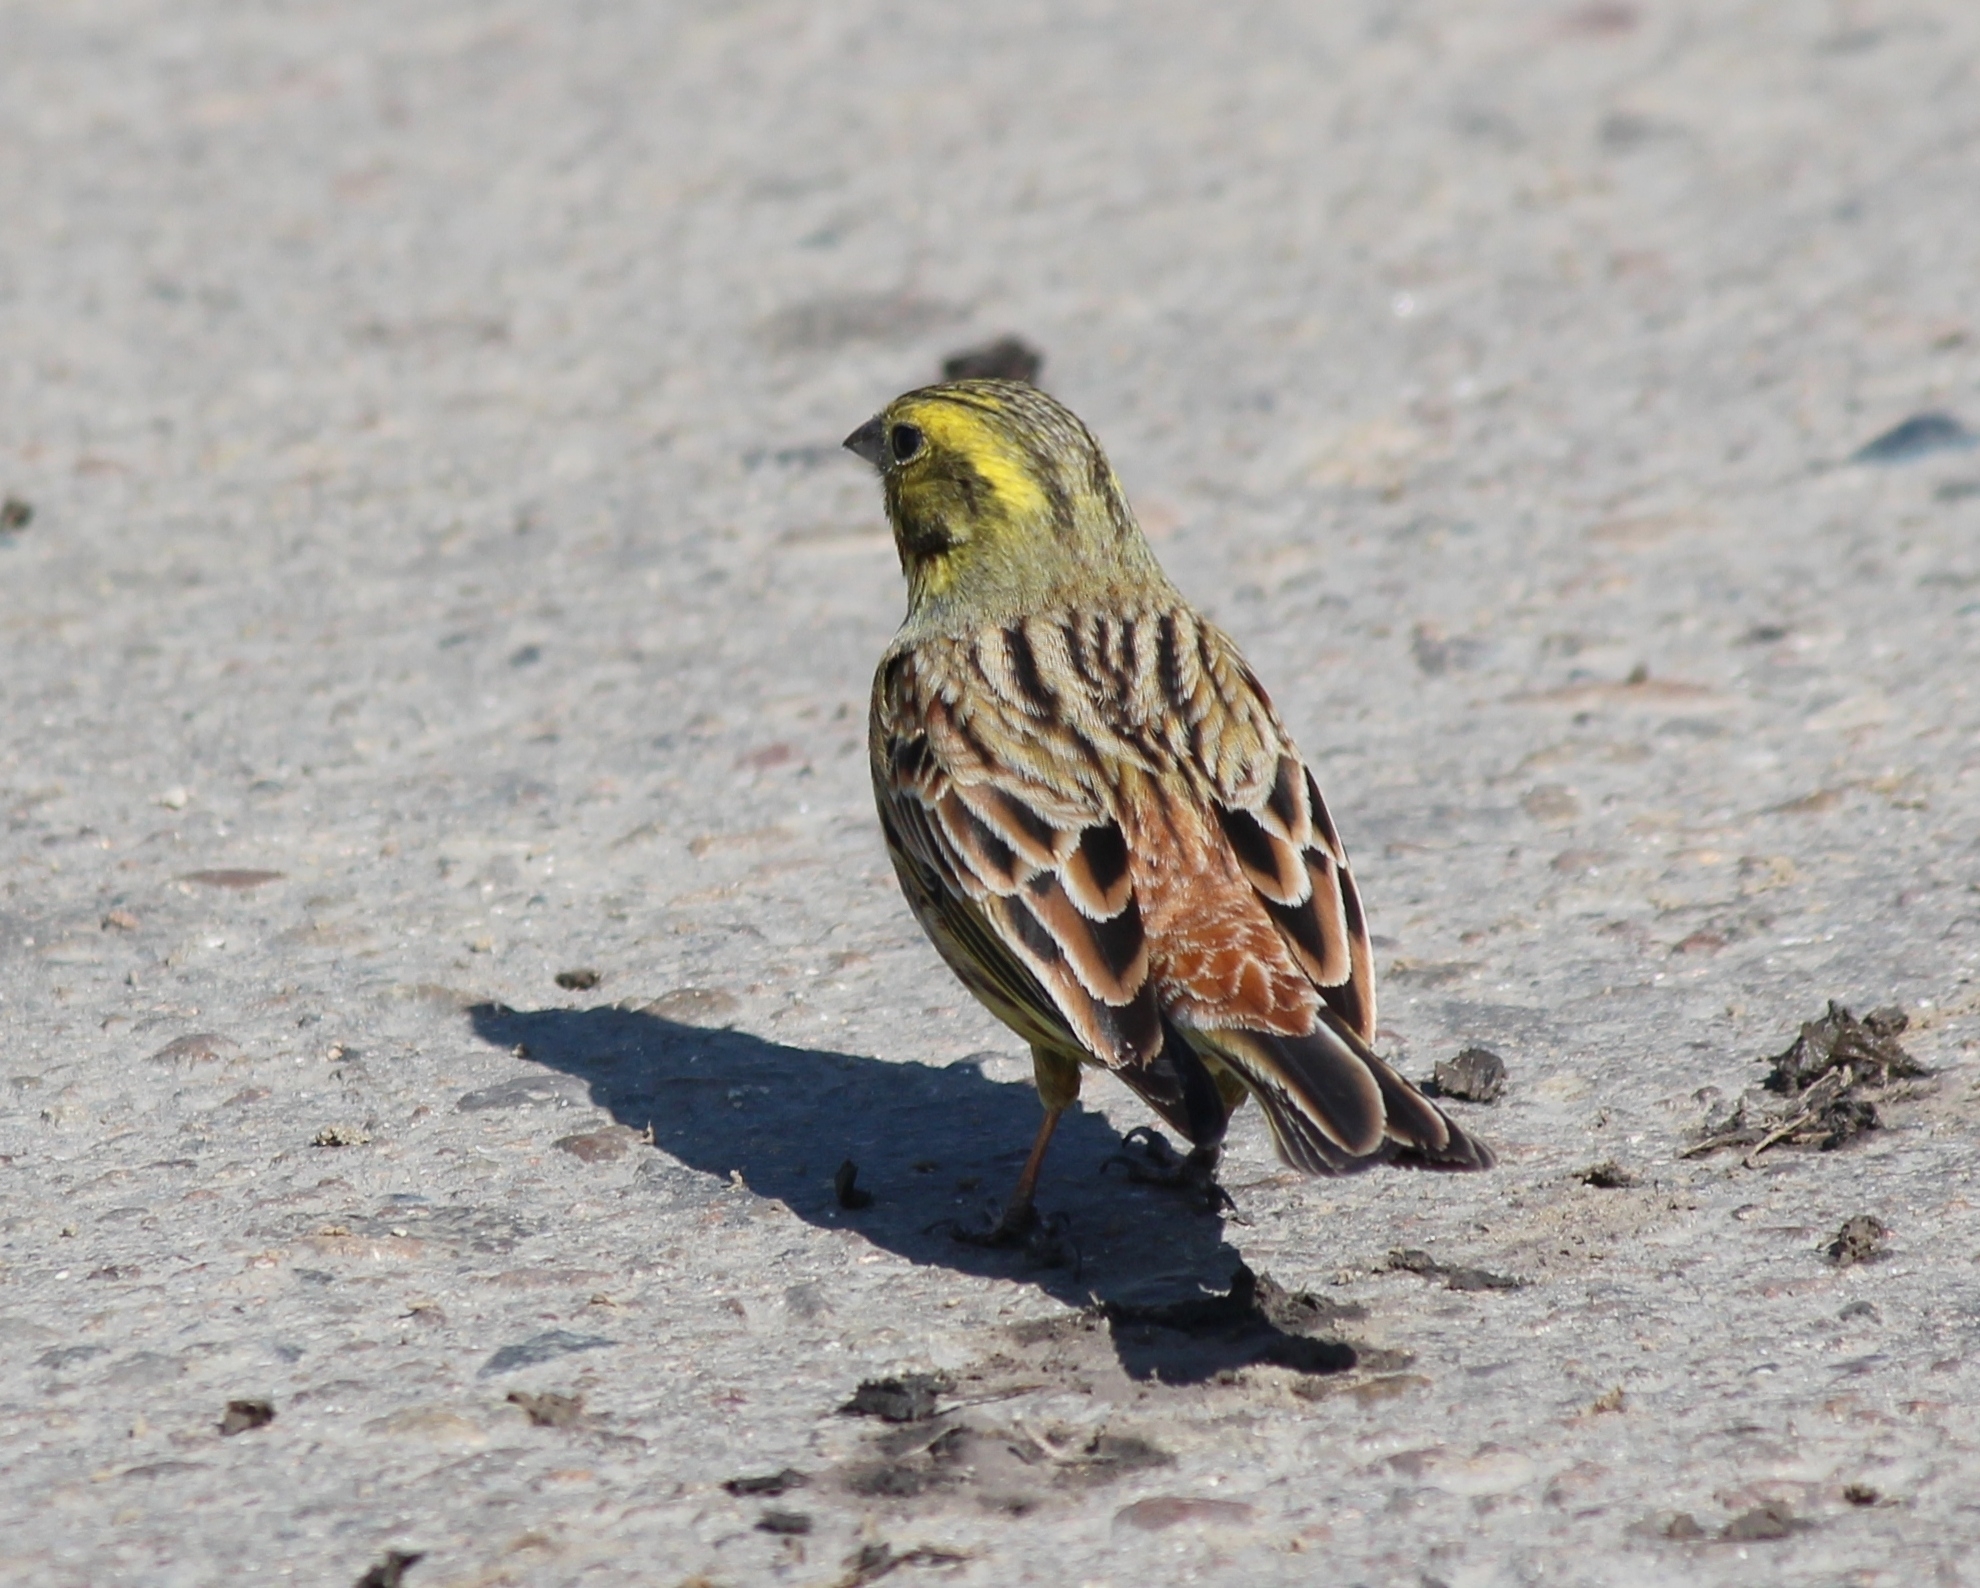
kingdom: Animalia
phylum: Chordata
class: Aves
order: Passeriformes
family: Emberizidae
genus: Emberiza
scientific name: Emberiza citrinella
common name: Yellowhammer
